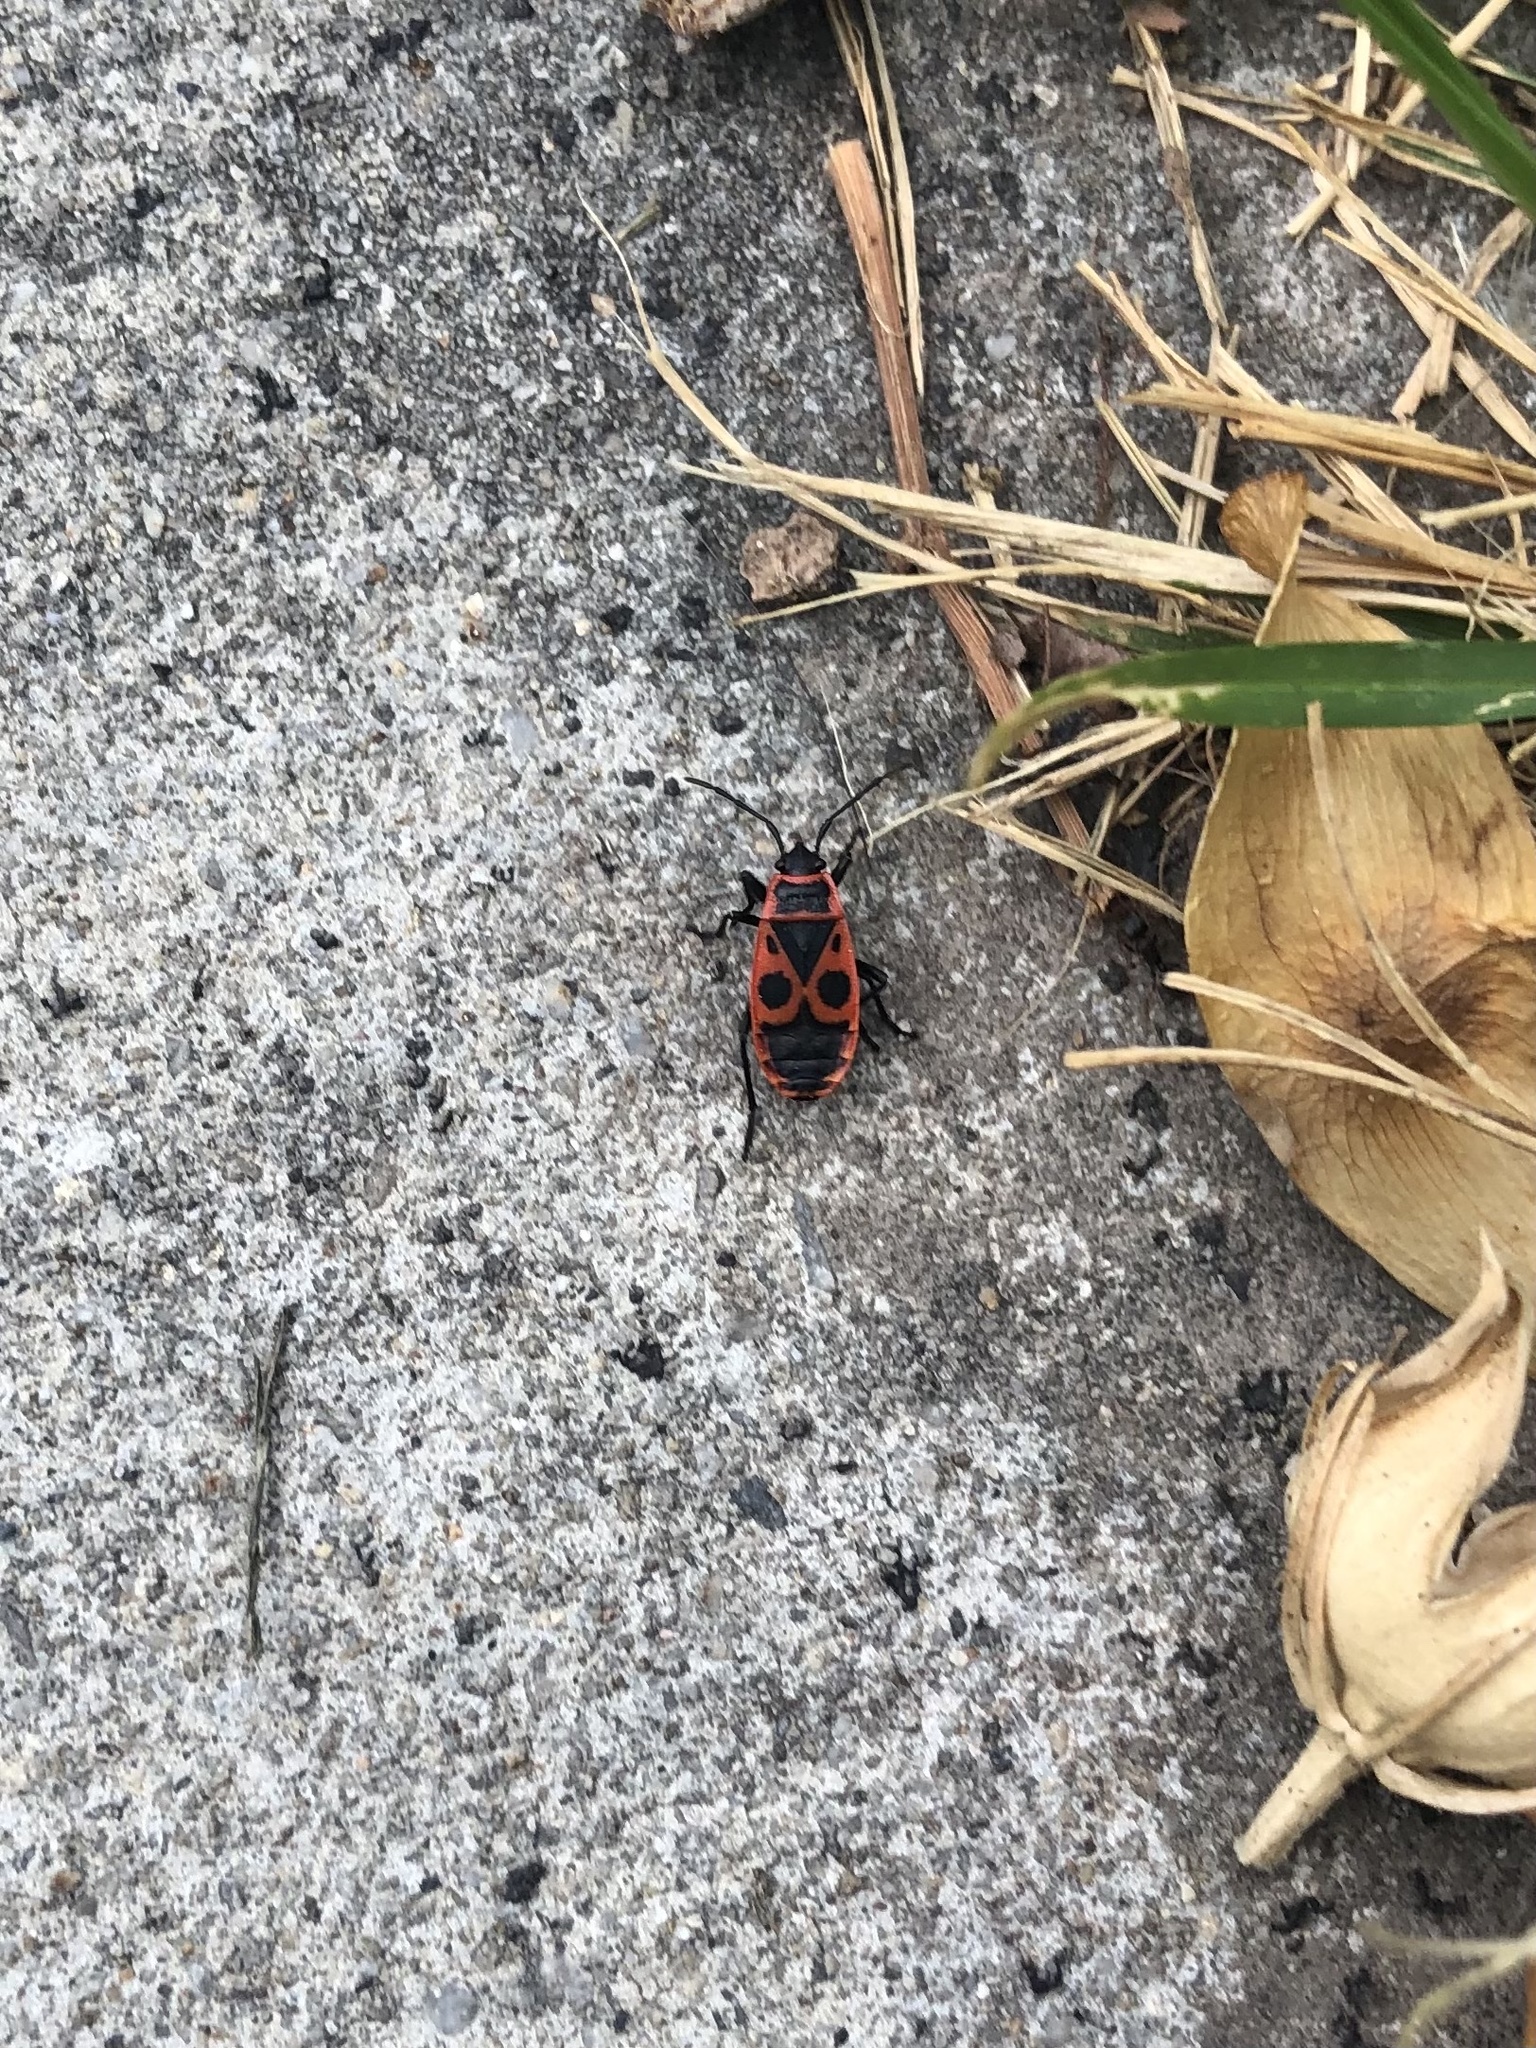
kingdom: Animalia
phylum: Arthropoda
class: Insecta
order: Hemiptera
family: Pyrrhocoridae
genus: Pyrrhocoris
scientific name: Pyrrhocoris apterus
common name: Firebug
